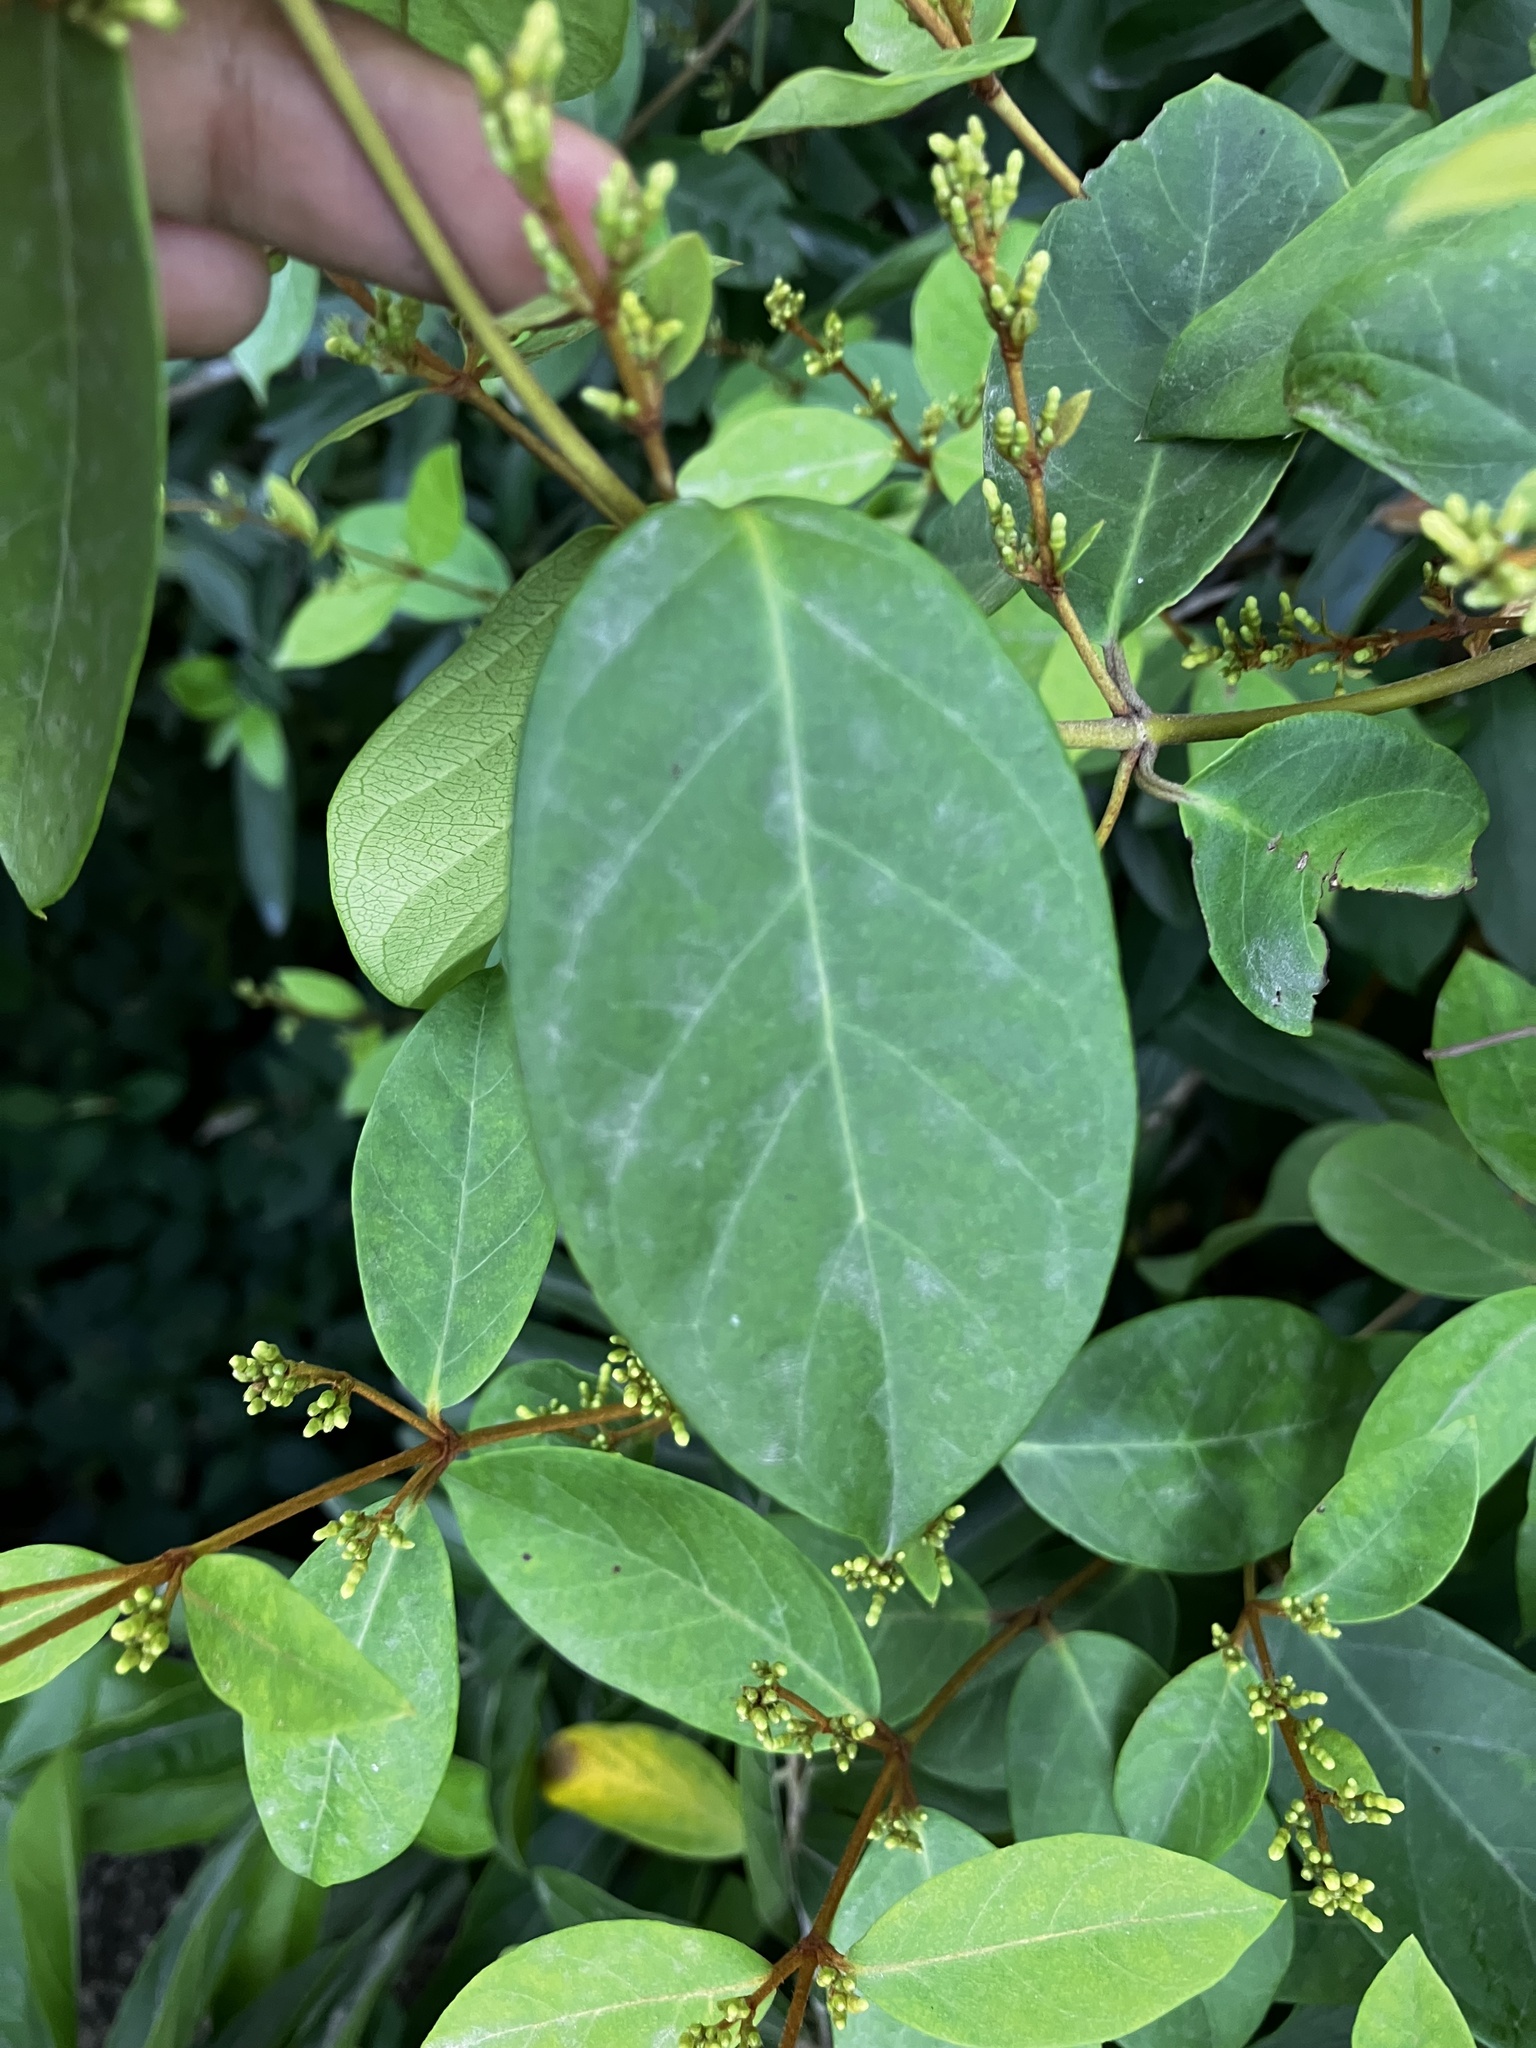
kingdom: Plantae
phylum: Tracheophyta
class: Magnoliopsida
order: Gentianales
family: Apocynaceae
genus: Ichnocarpus
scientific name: Ichnocarpus frutescens
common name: Ichnocarpus
